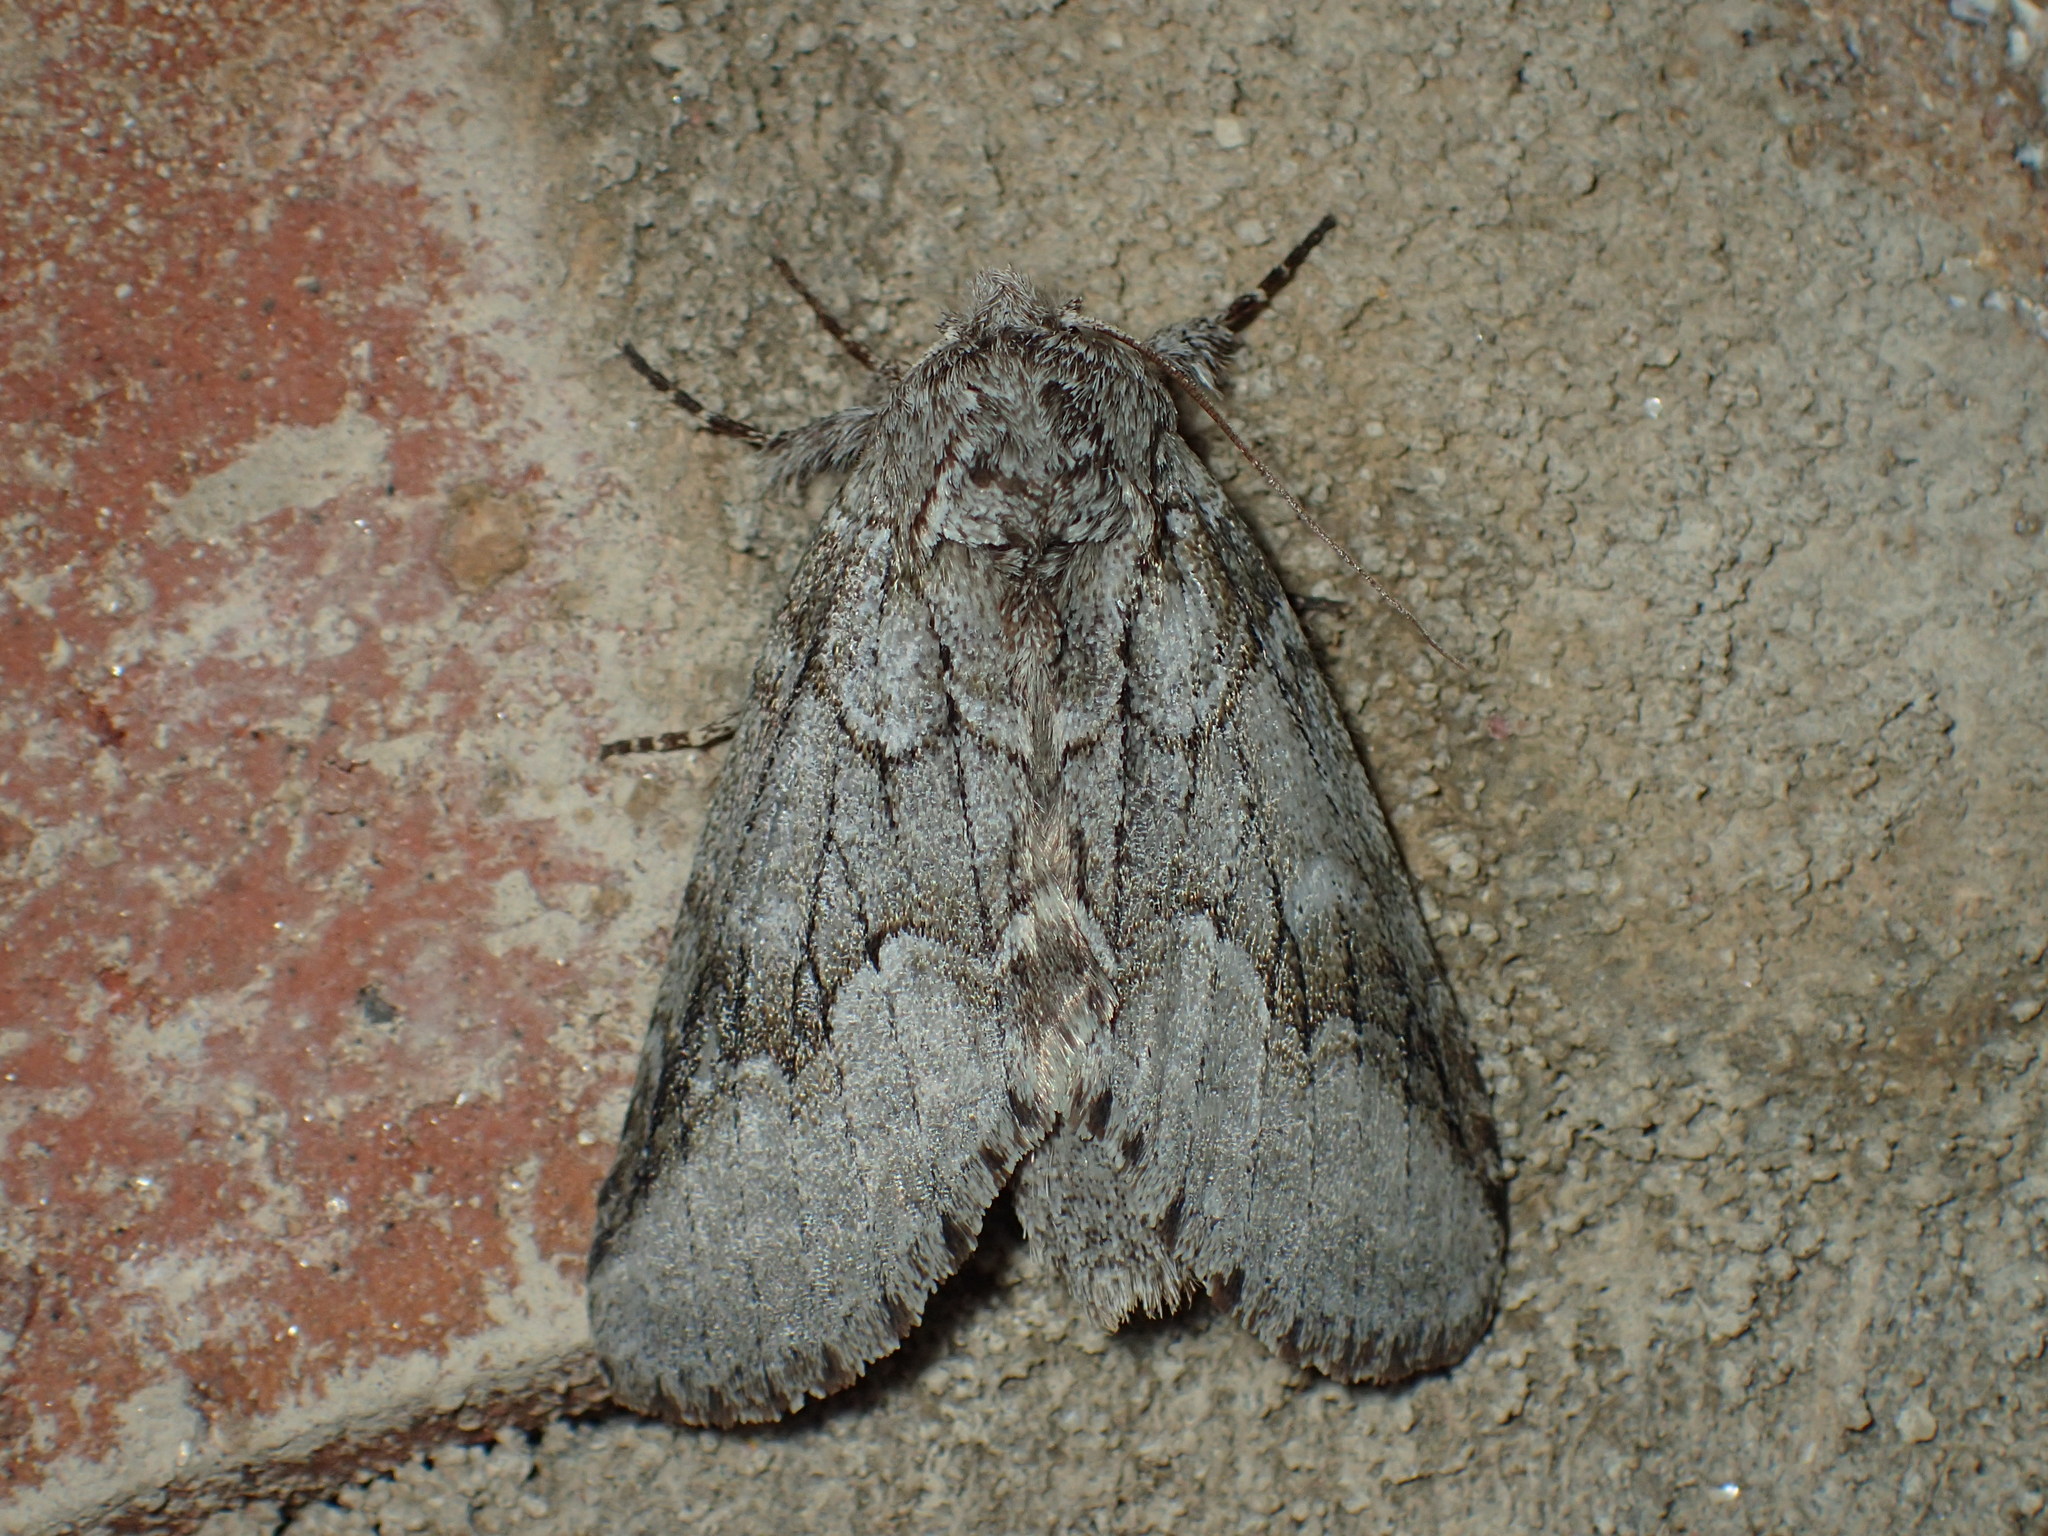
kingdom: Animalia
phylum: Arthropoda
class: Insecta
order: Lepidoptera
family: Notodontidae
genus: Lochmaeus
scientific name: Lochmaeus bilineata
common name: Double-lined prominent
